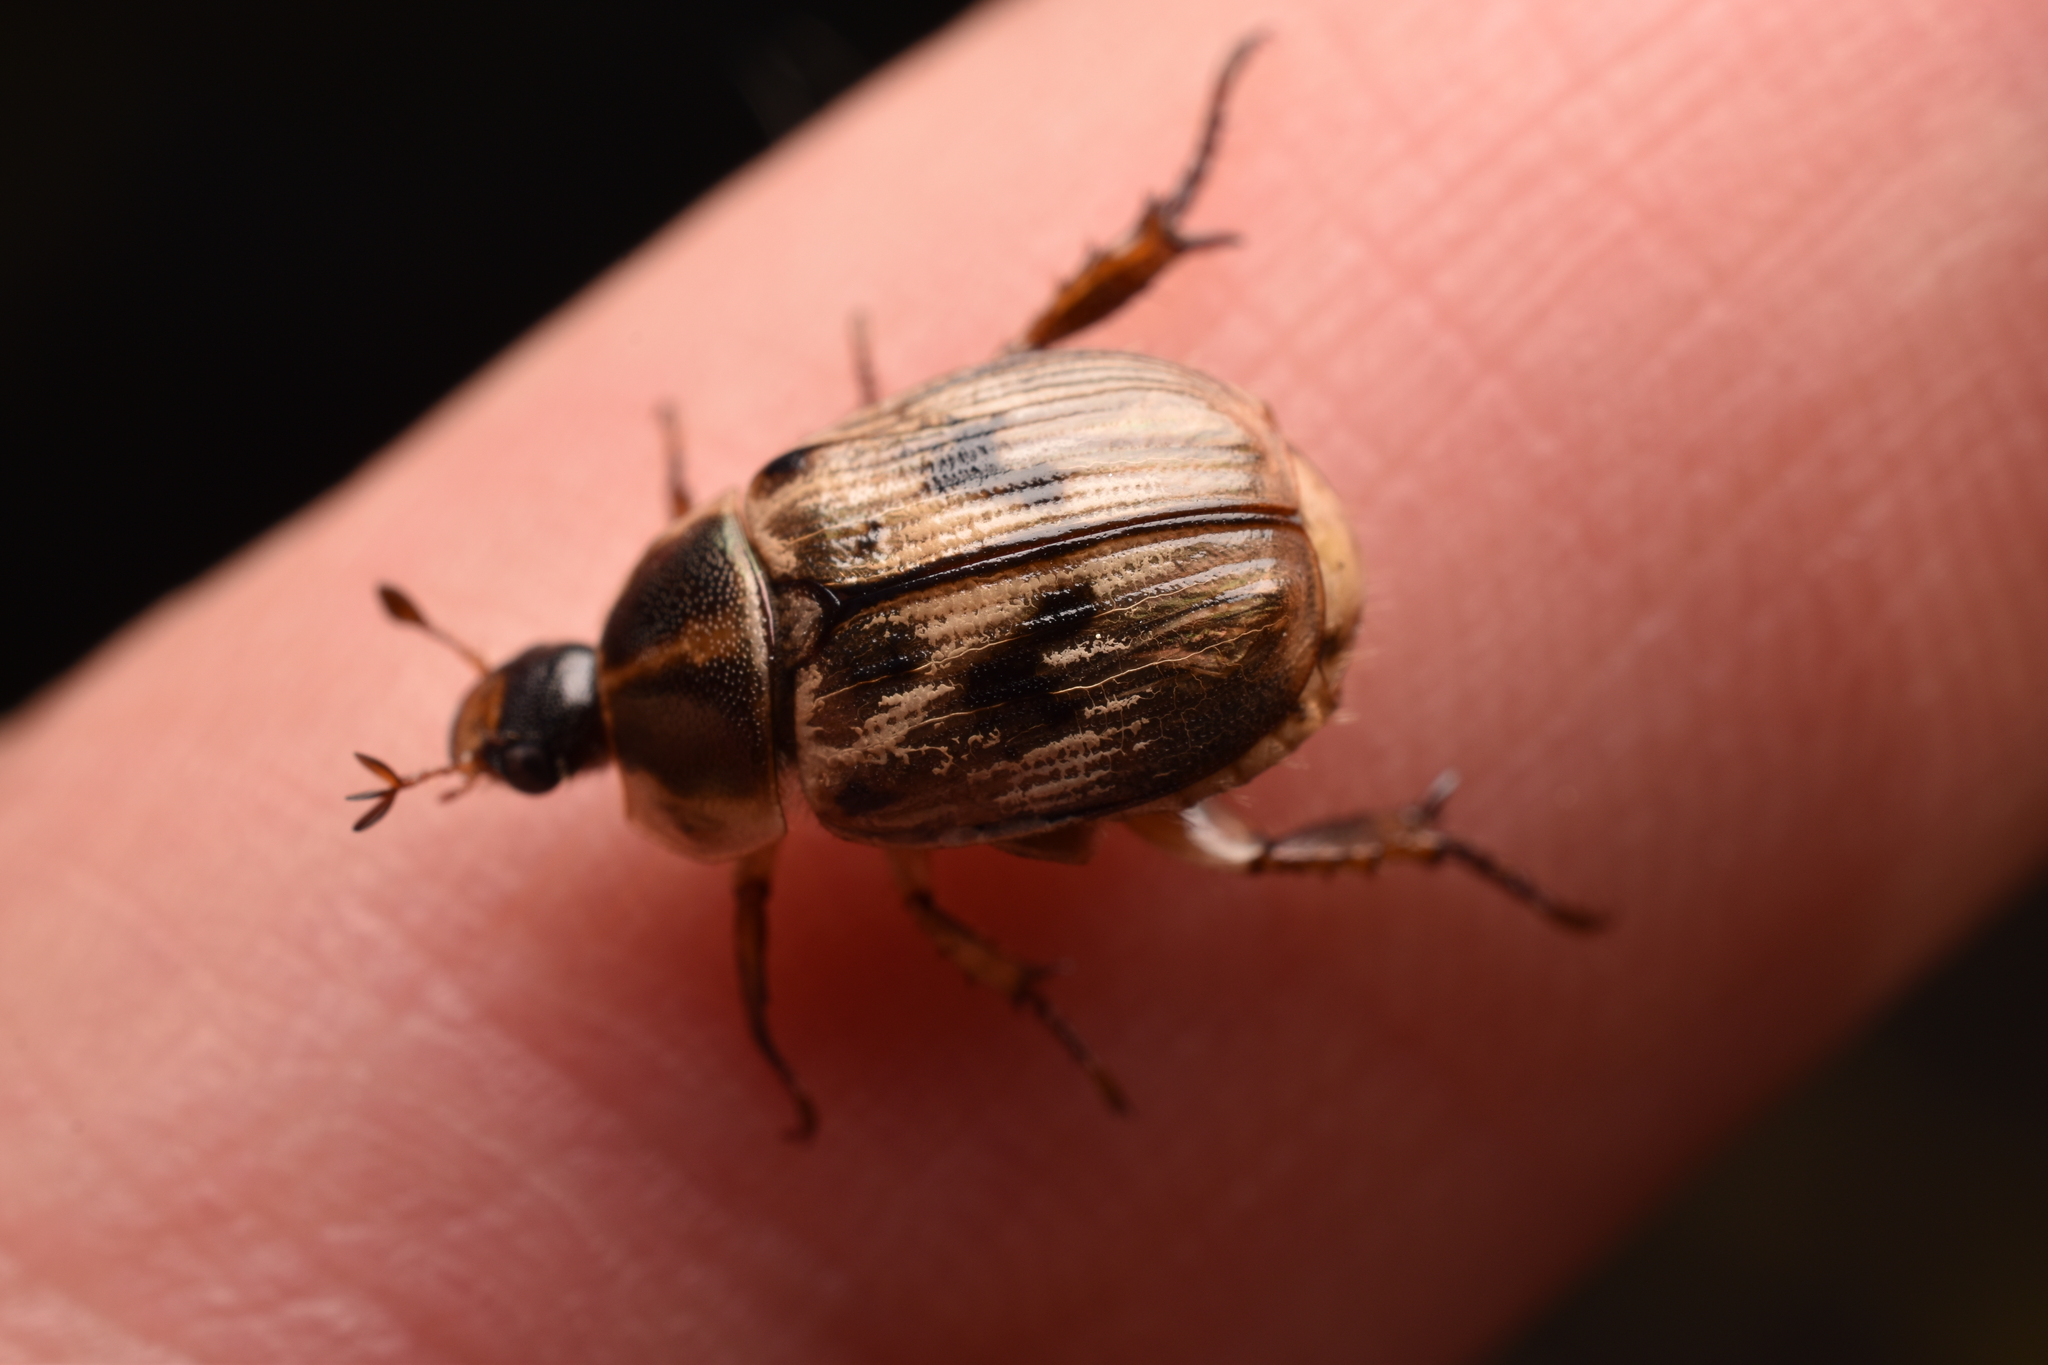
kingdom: Animalia
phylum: Arthropoda
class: Insecta
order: Coleoptera
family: Scarabaeidae
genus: Exomala
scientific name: Exomala orientalis
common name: Oriental beetle
